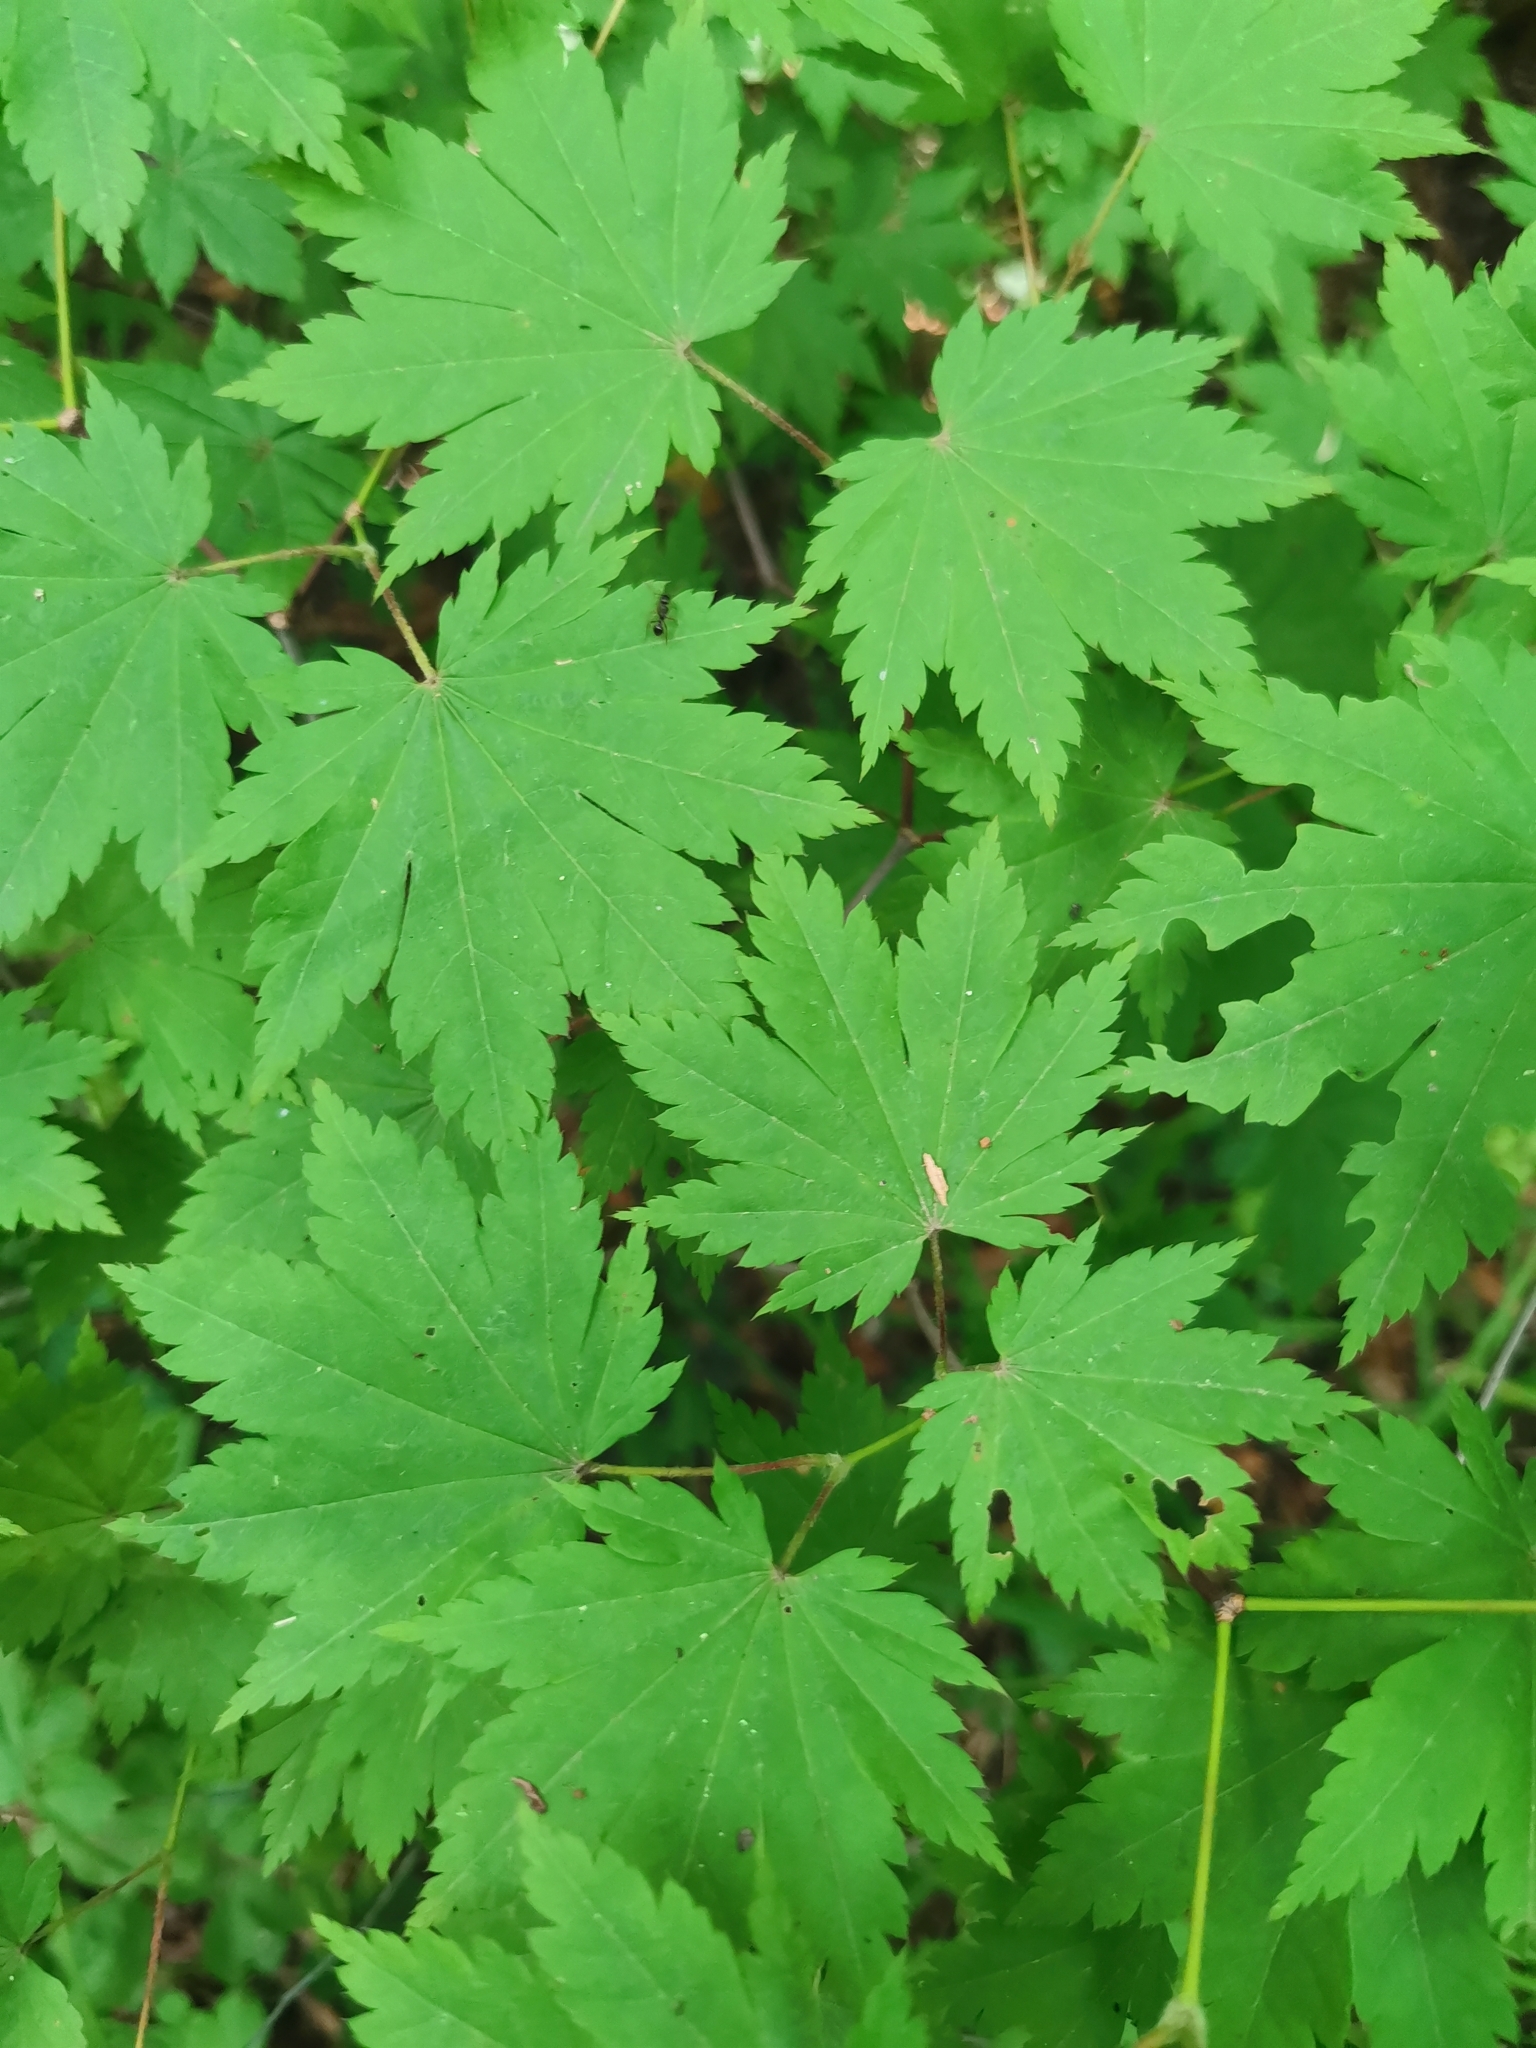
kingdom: Plantae
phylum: Tracheophyta
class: Magnoliopsida
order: Sapindales
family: Sapindaceae
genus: Acer
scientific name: Acer pseudosieboldianum
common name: Korean maple
